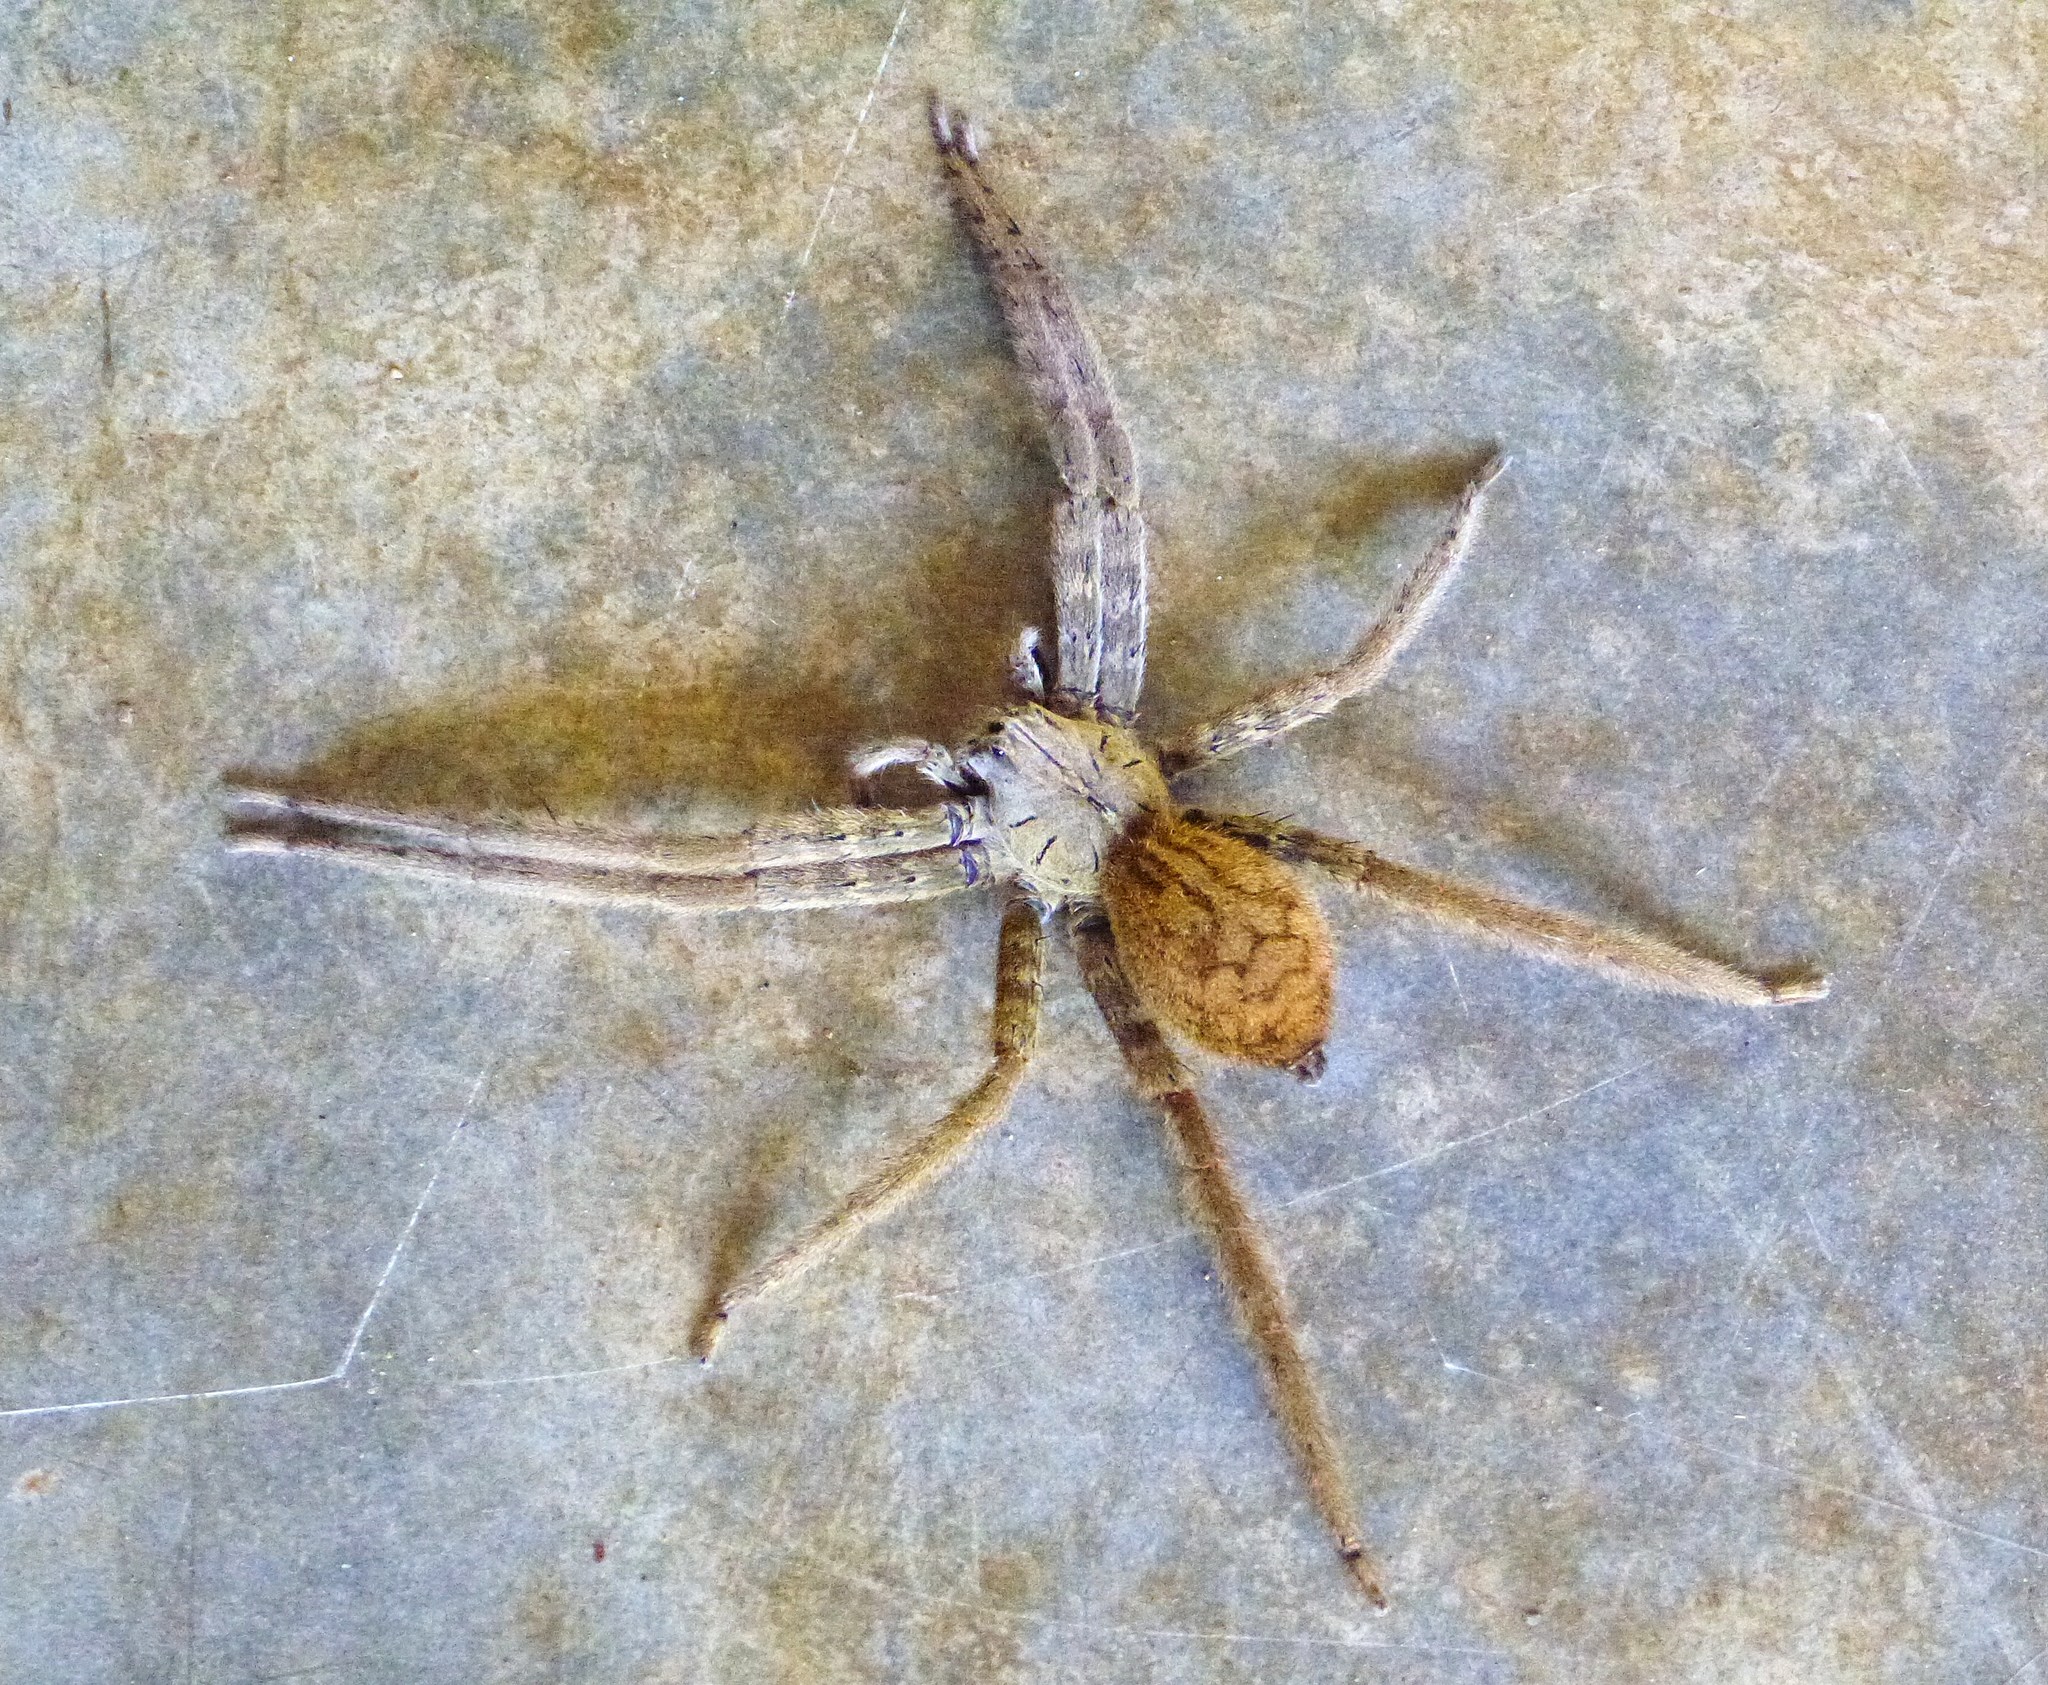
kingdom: Animalia
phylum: Arthropoda
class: Arachnida
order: Araneae
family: Trechaleidae
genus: Cupiennius
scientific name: Cupiennius coccineus
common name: Wandering spiders
